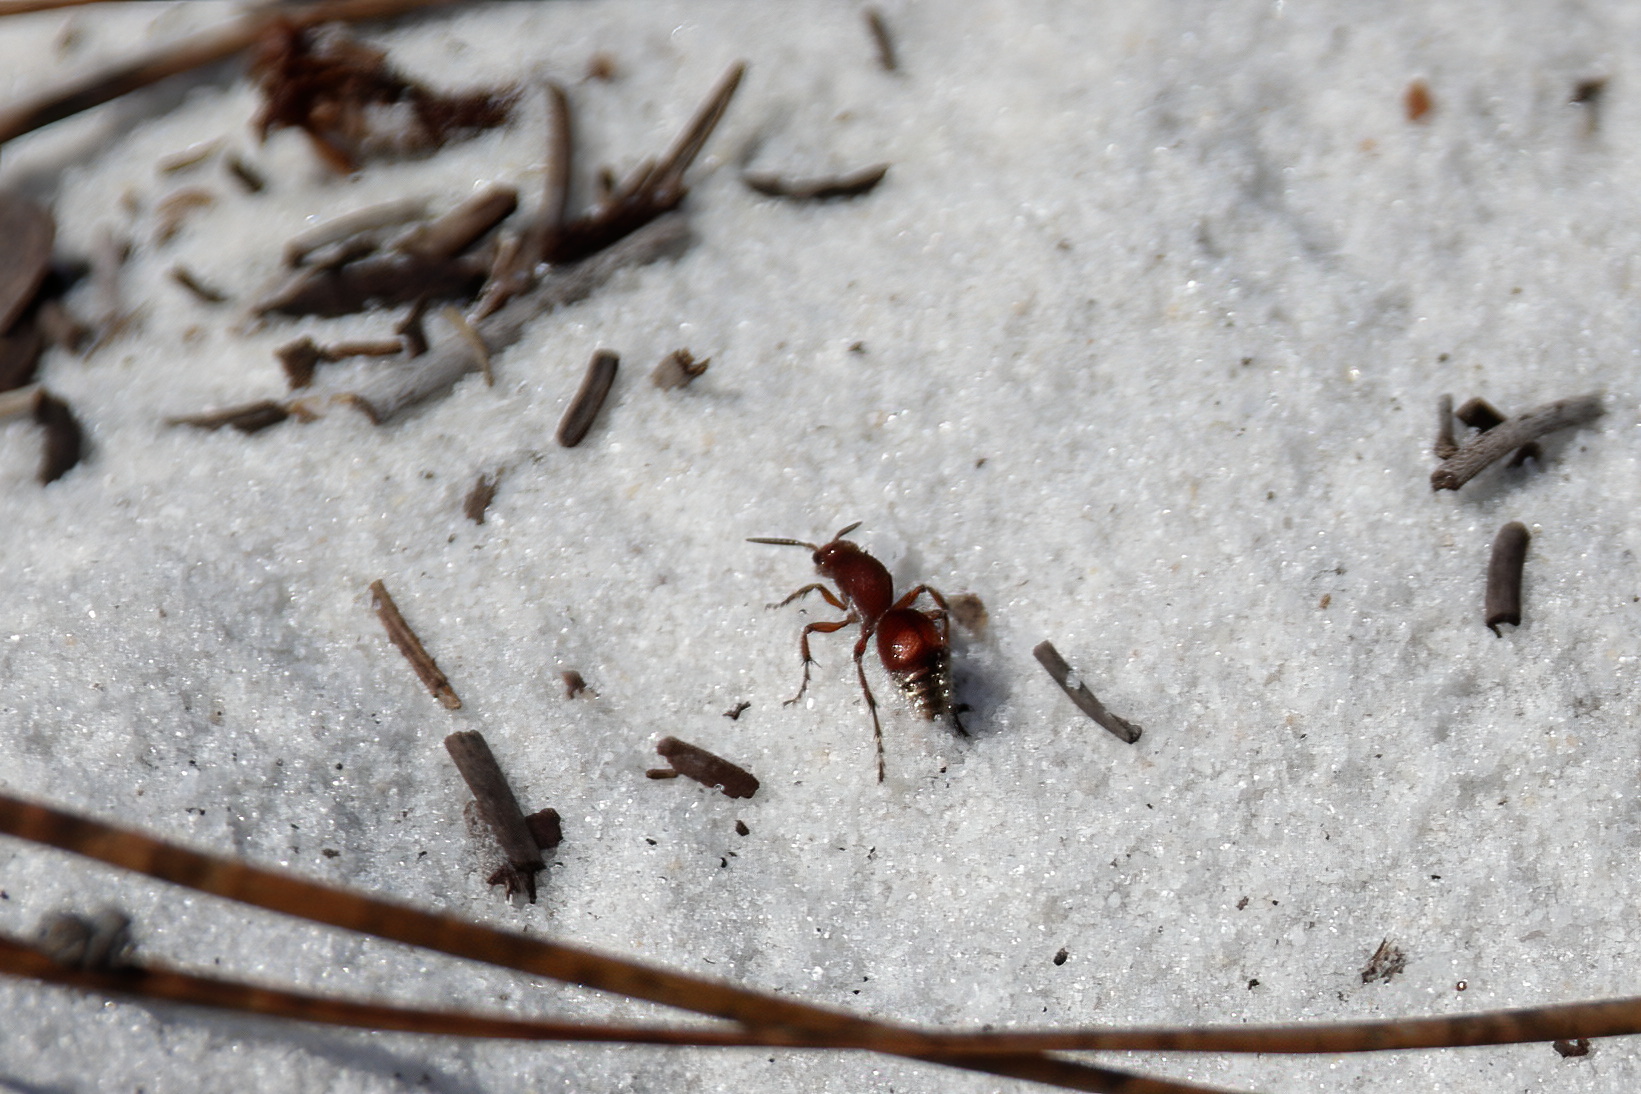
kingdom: Animalia
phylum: Arthropoda
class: Insecta
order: Hymenoptera
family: Mutillidae
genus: Dasymutilla
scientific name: Dasymutilla
